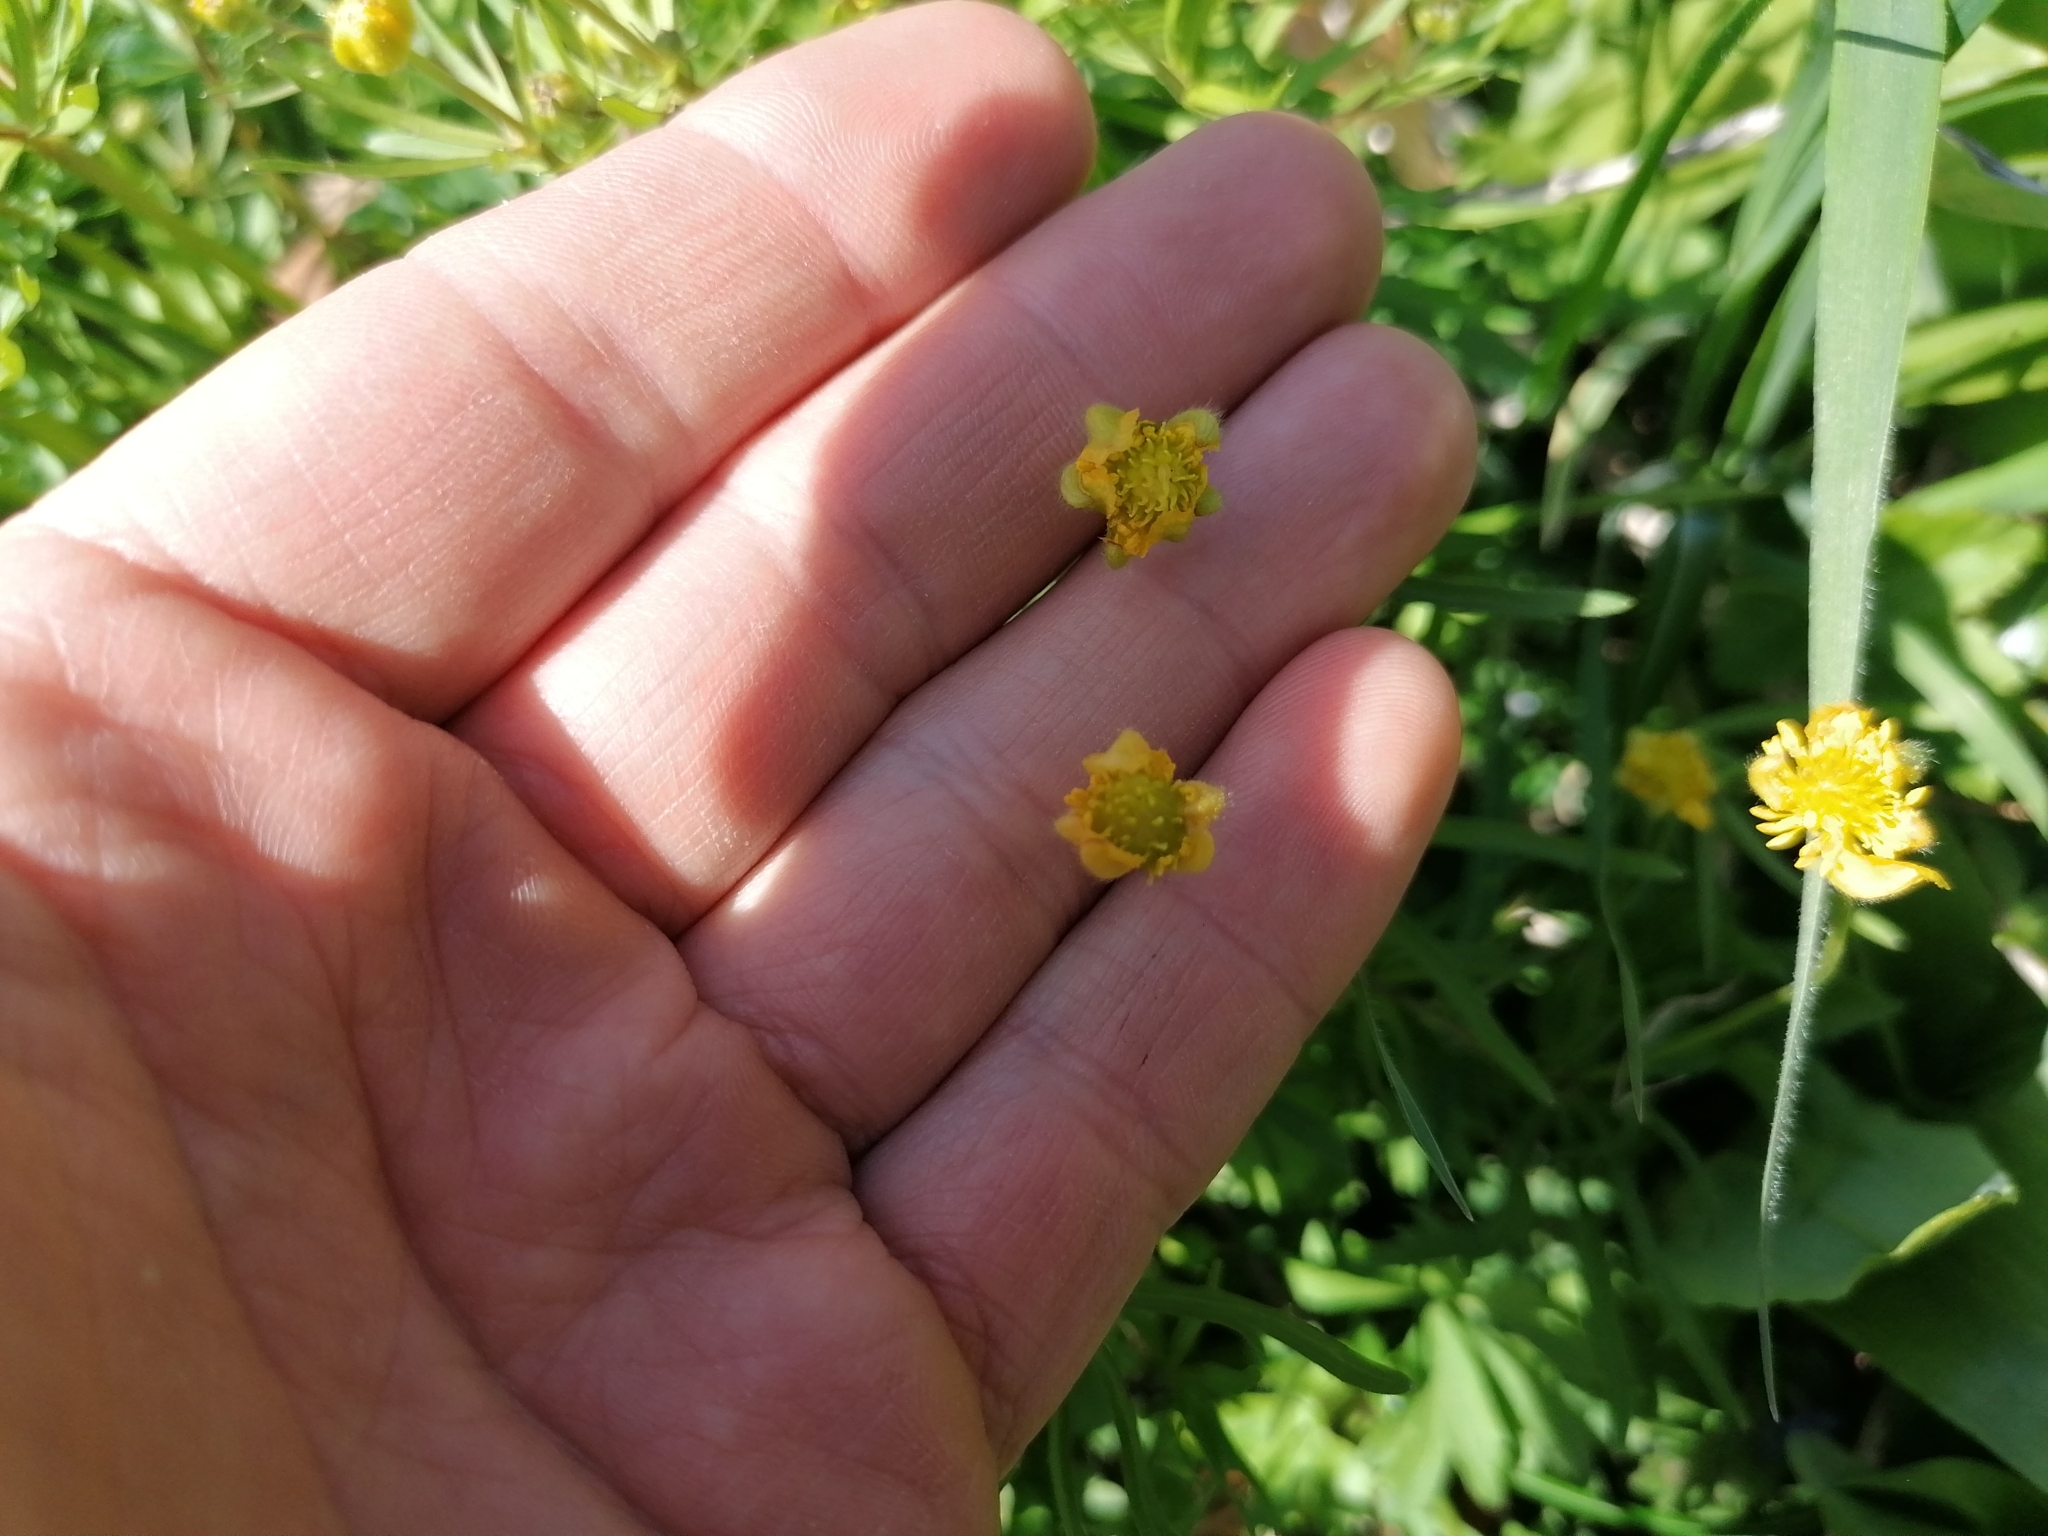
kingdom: Plantae
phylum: Tracheophyta
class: Magnoliopsida
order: Ranunculales
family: Ranunculaceae
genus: Ranunculus
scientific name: Ranunculus auricomus
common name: Goldilocks buttercup
